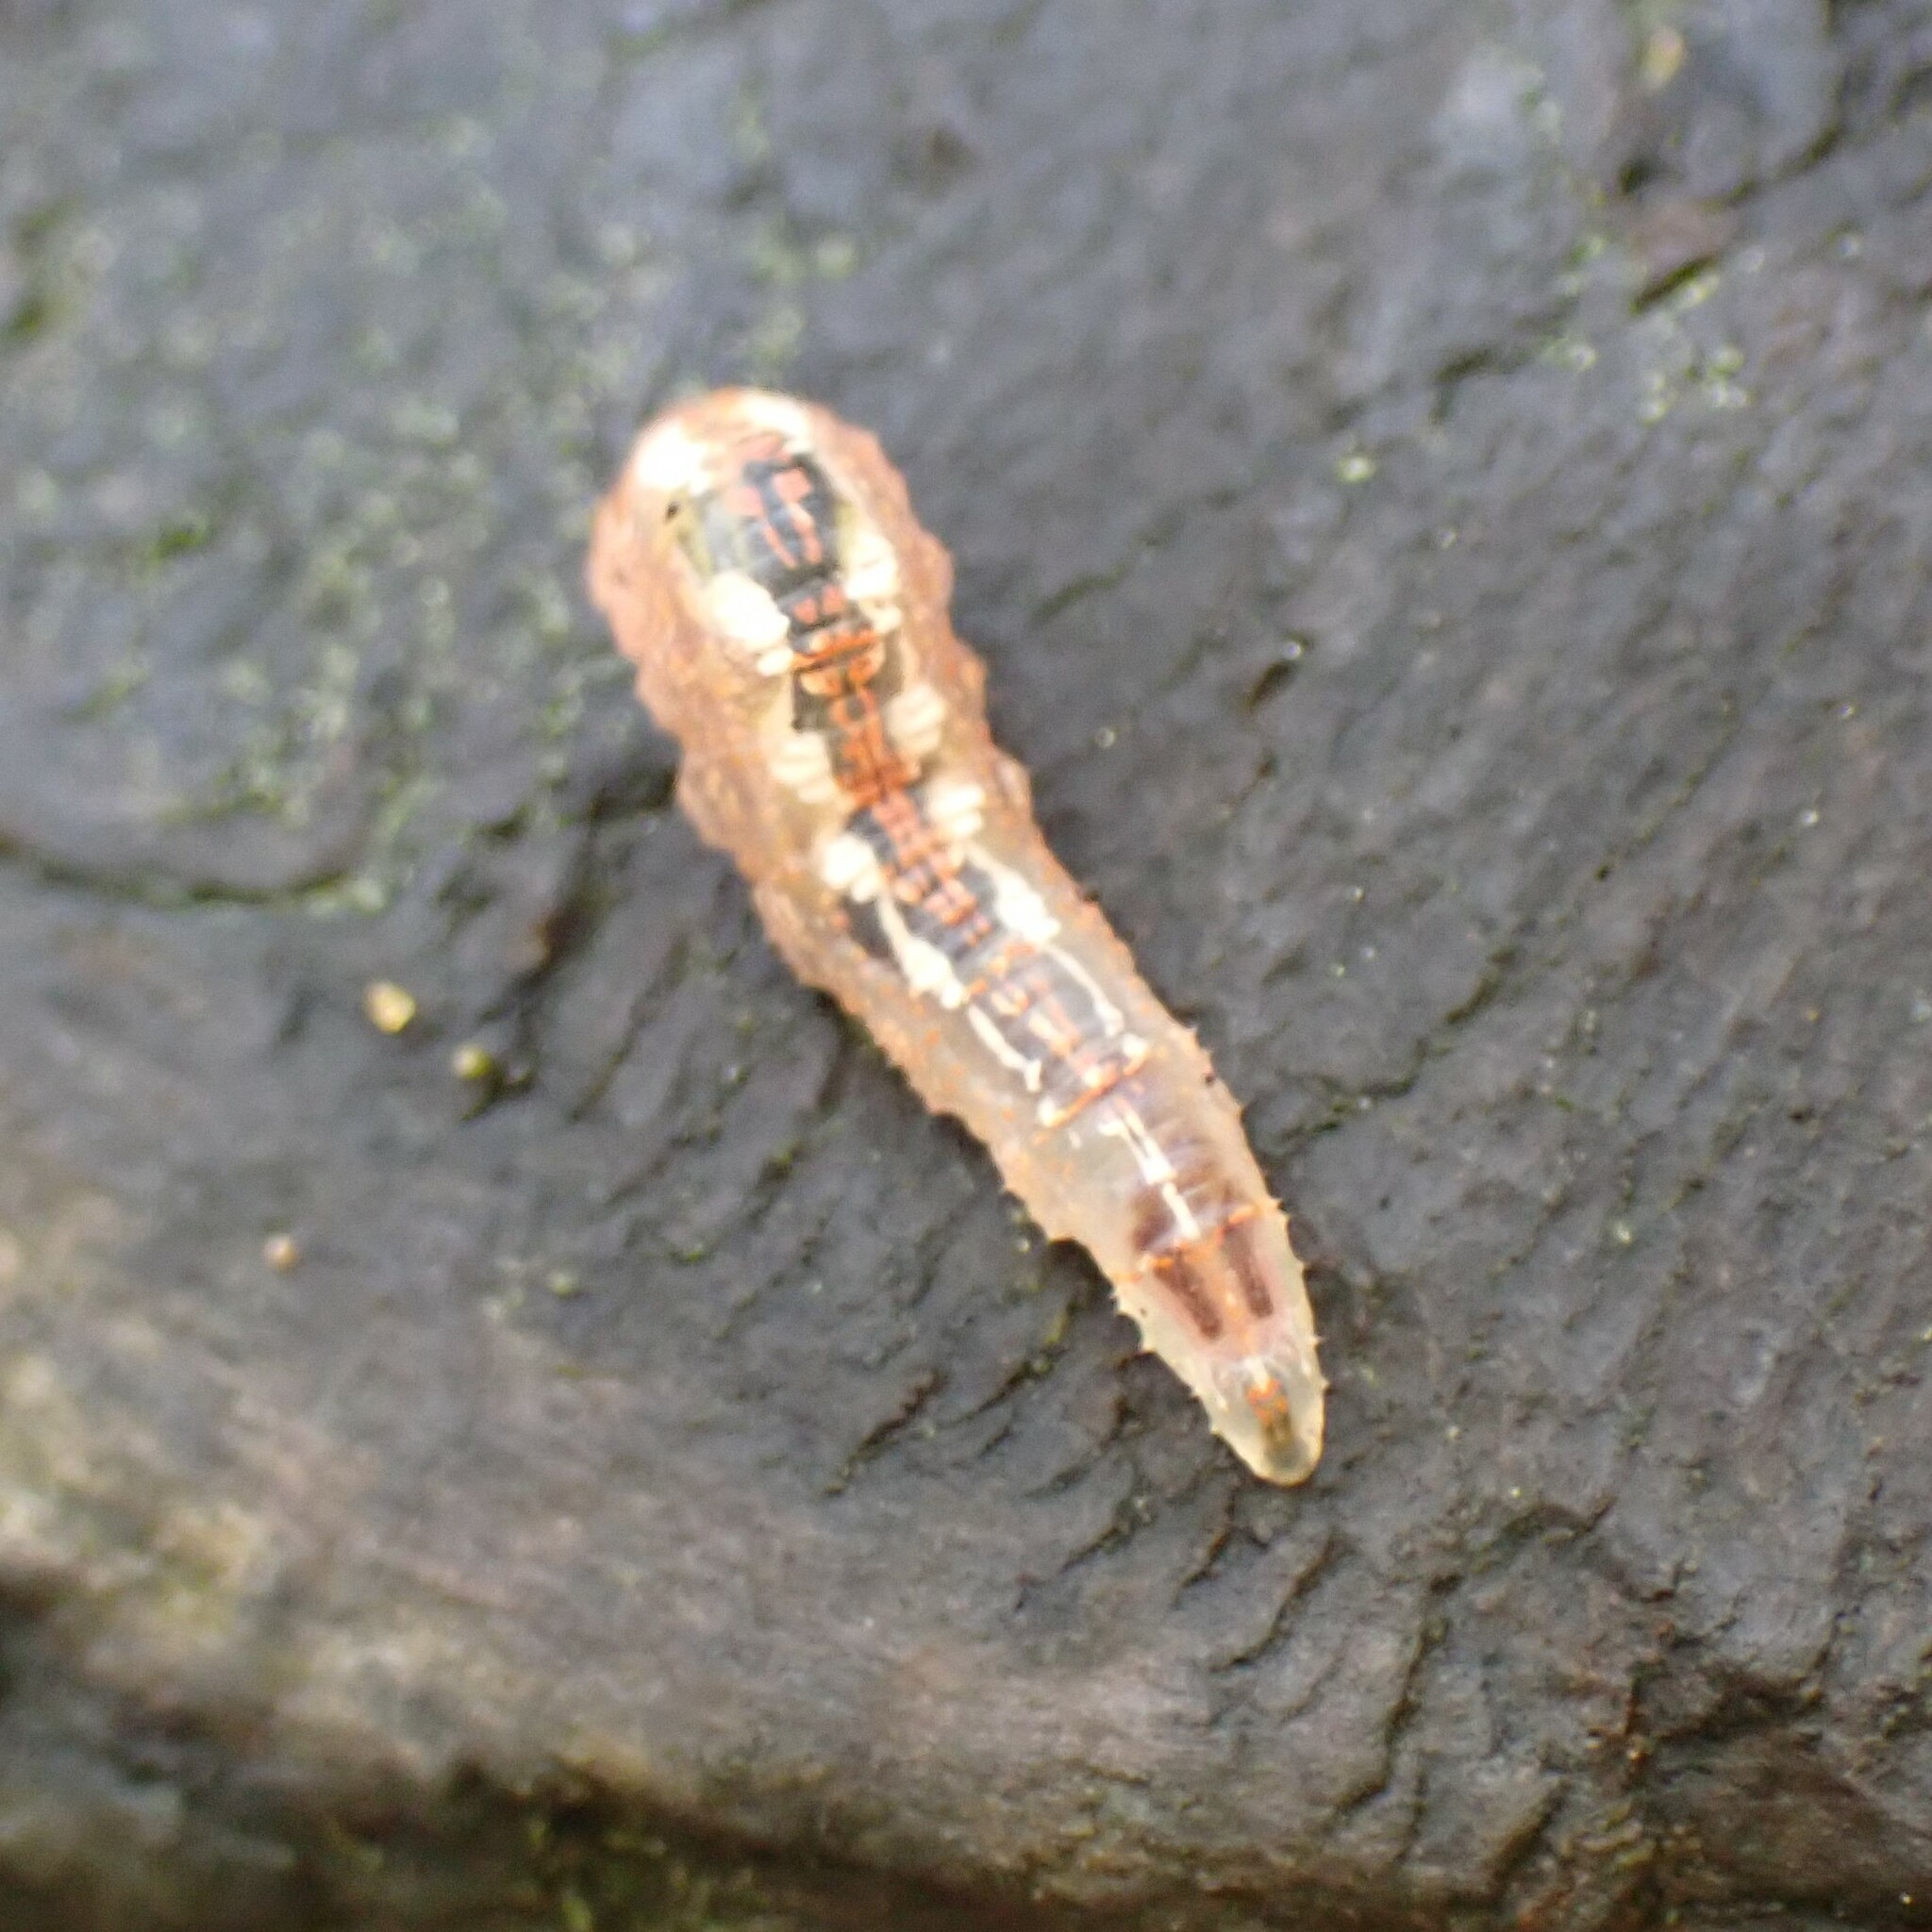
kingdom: Animalia
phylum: Arthropoda
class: Insecta
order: Diptera
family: Syrphidae
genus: Syrphus
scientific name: Syrphus
